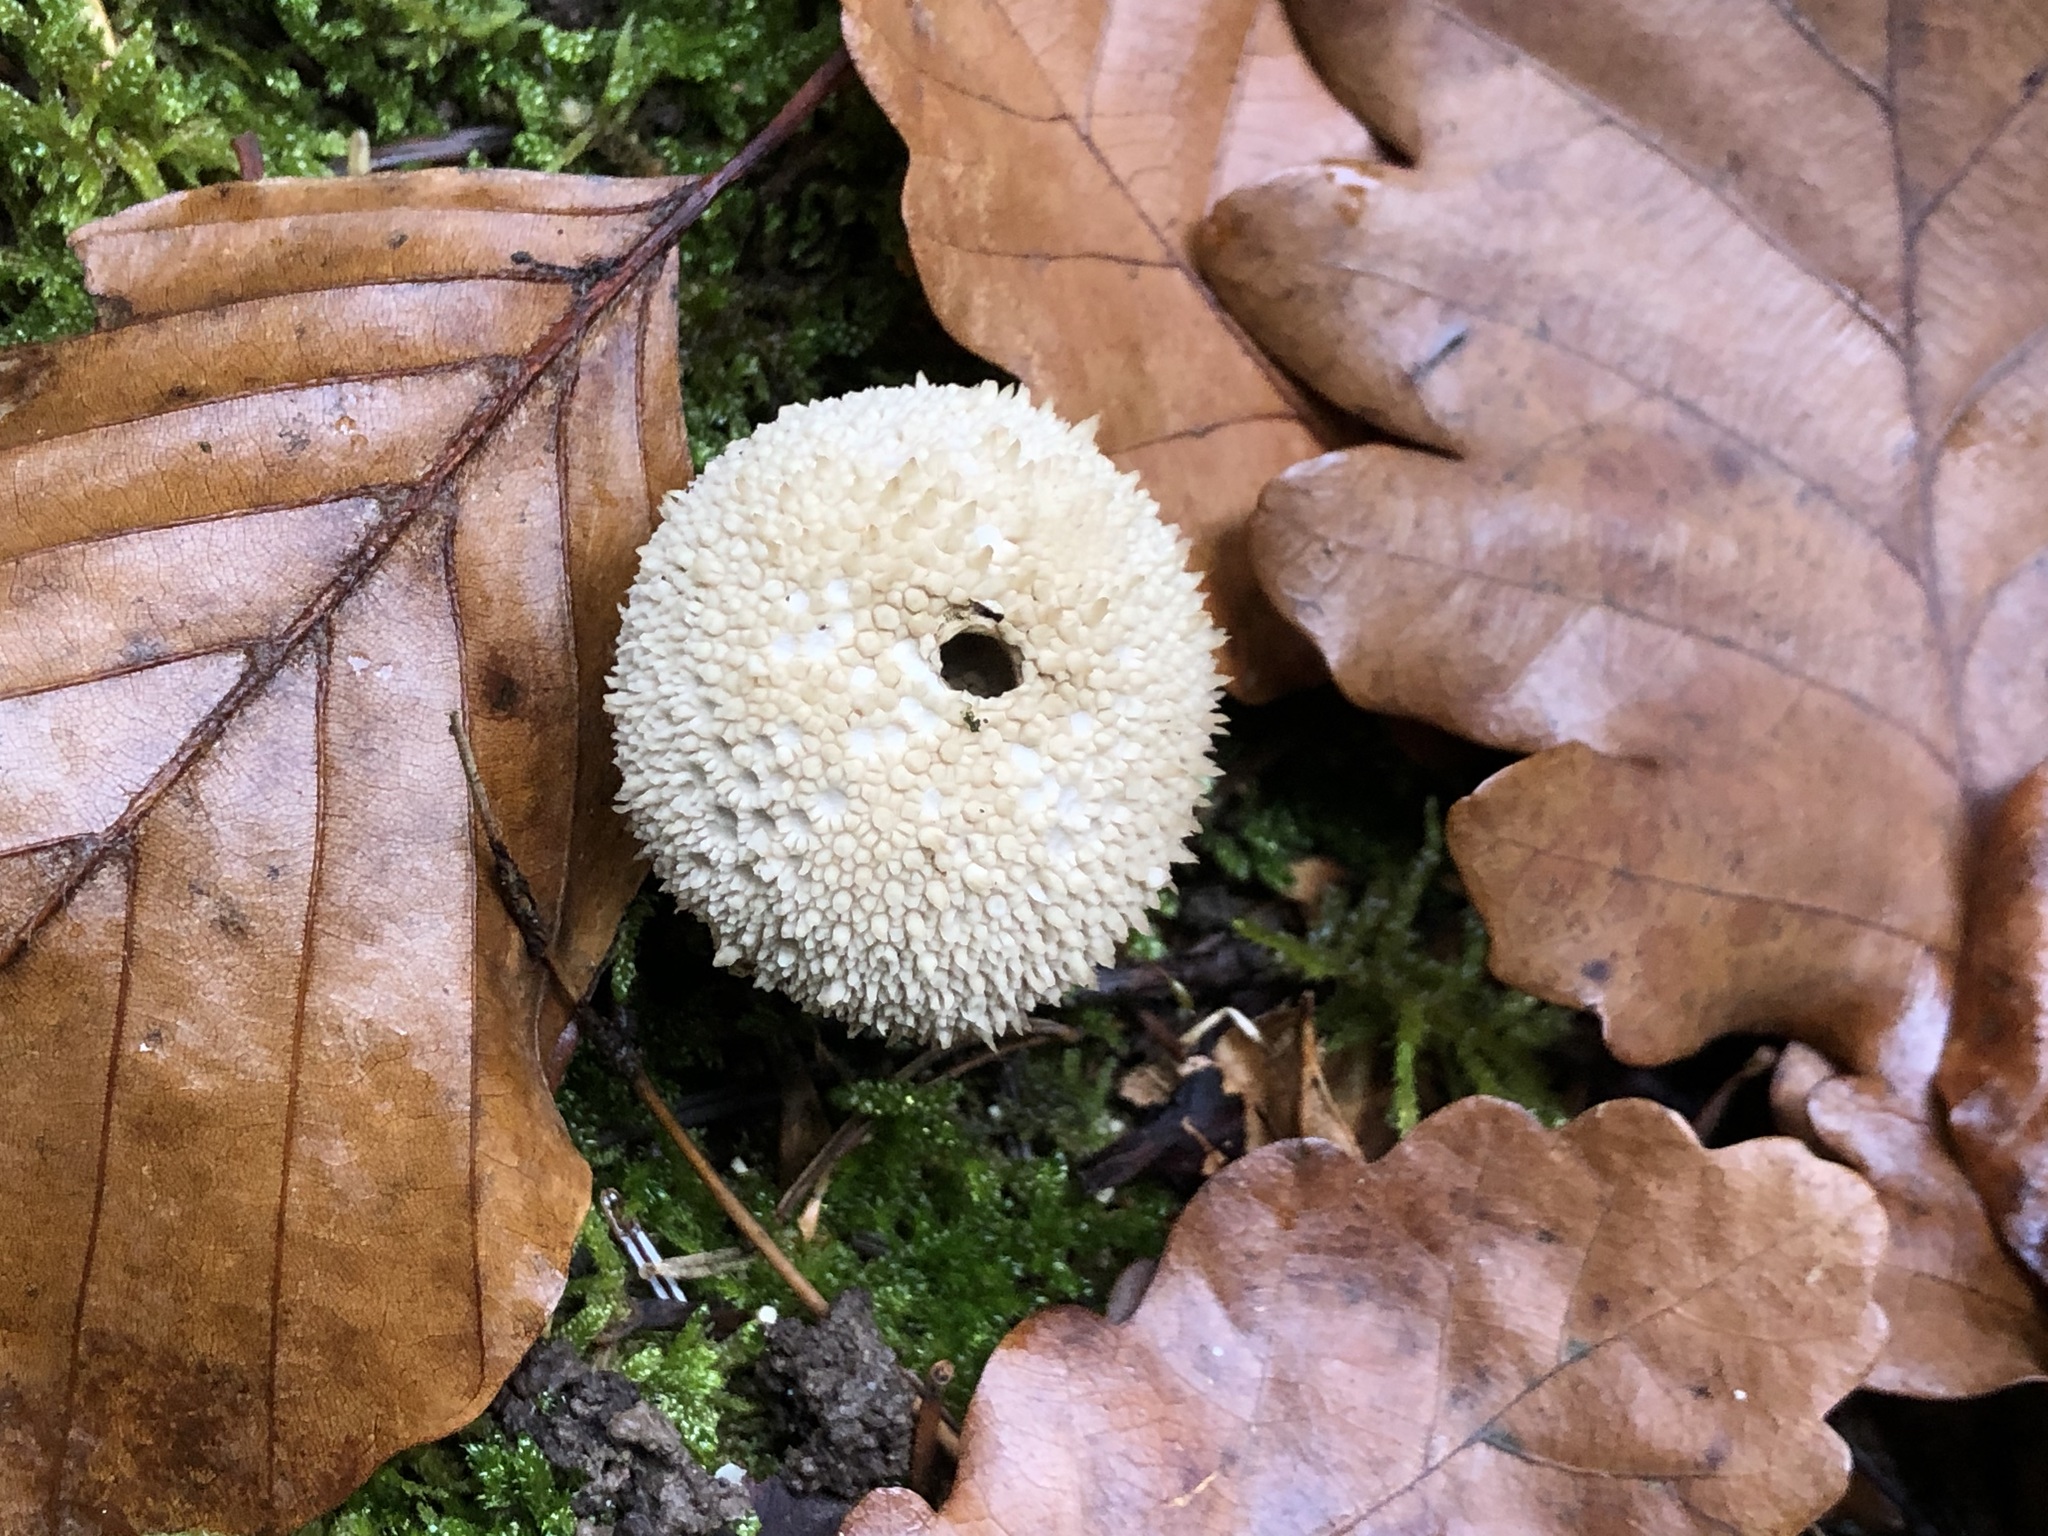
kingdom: Fungi
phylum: Basidiomycota
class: Agaricomycetes
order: Agaricales
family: Lycoperdaceae
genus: Lycoperdon
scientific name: Lycoperdon perlatum
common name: Common puffball
